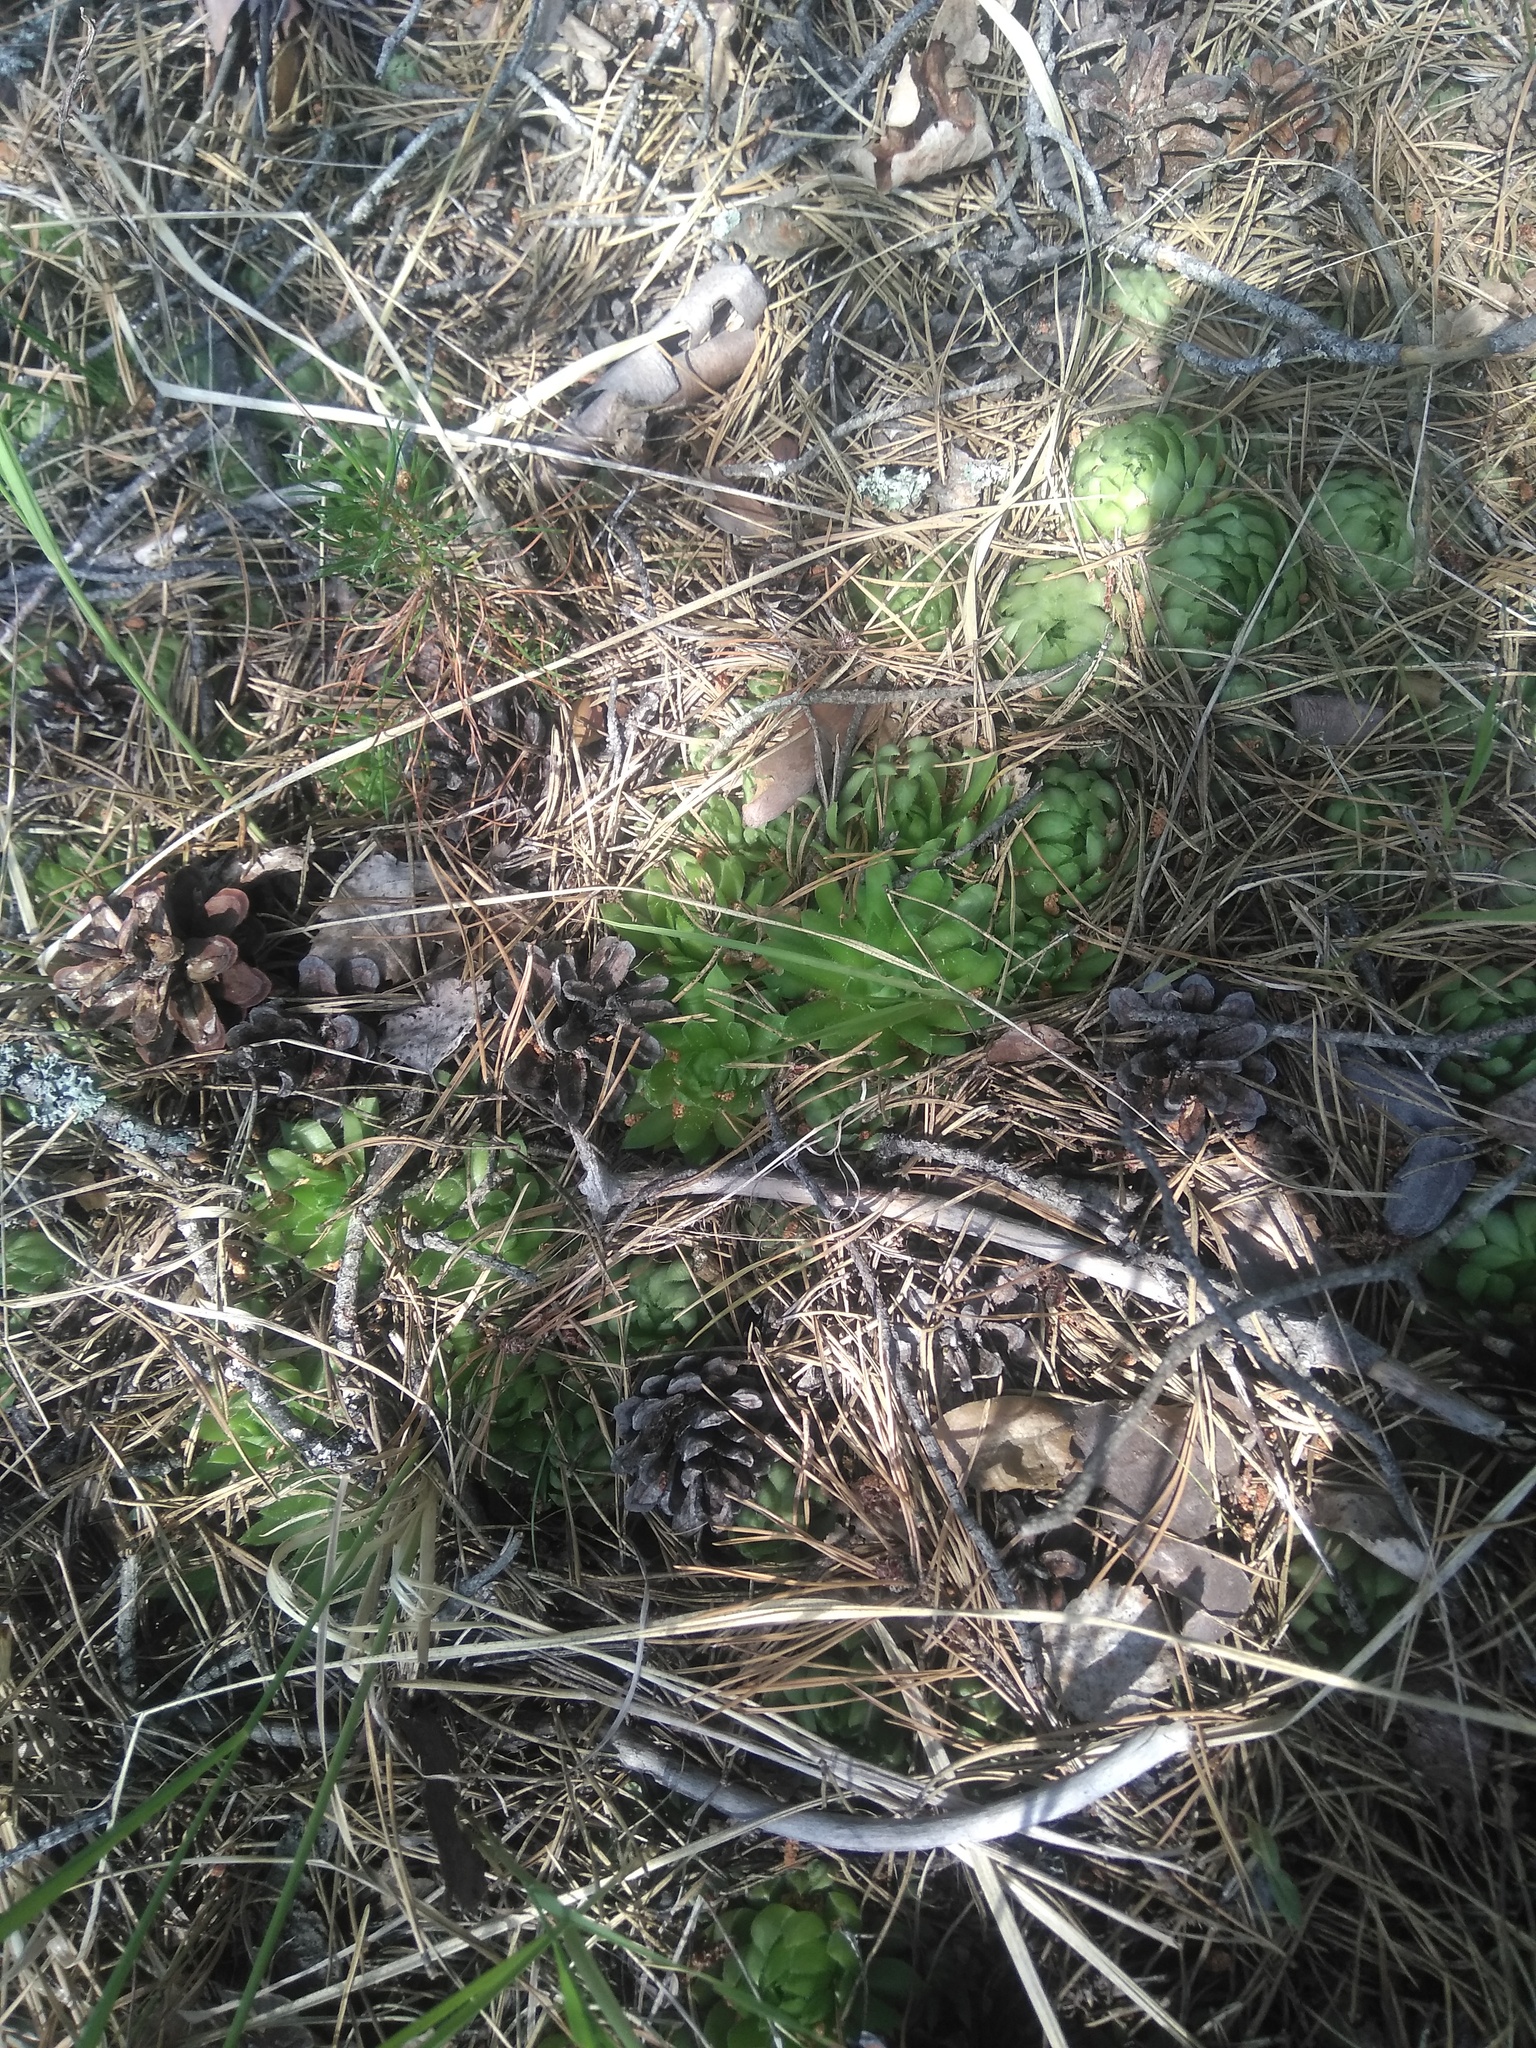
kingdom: Plantae
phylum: Tracheophyta
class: Magnoliopsida
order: Saxifragales
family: Crassulaceae
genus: Sempervivum
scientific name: Sempervivum globiferum
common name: Rolling hen-and-chicks
